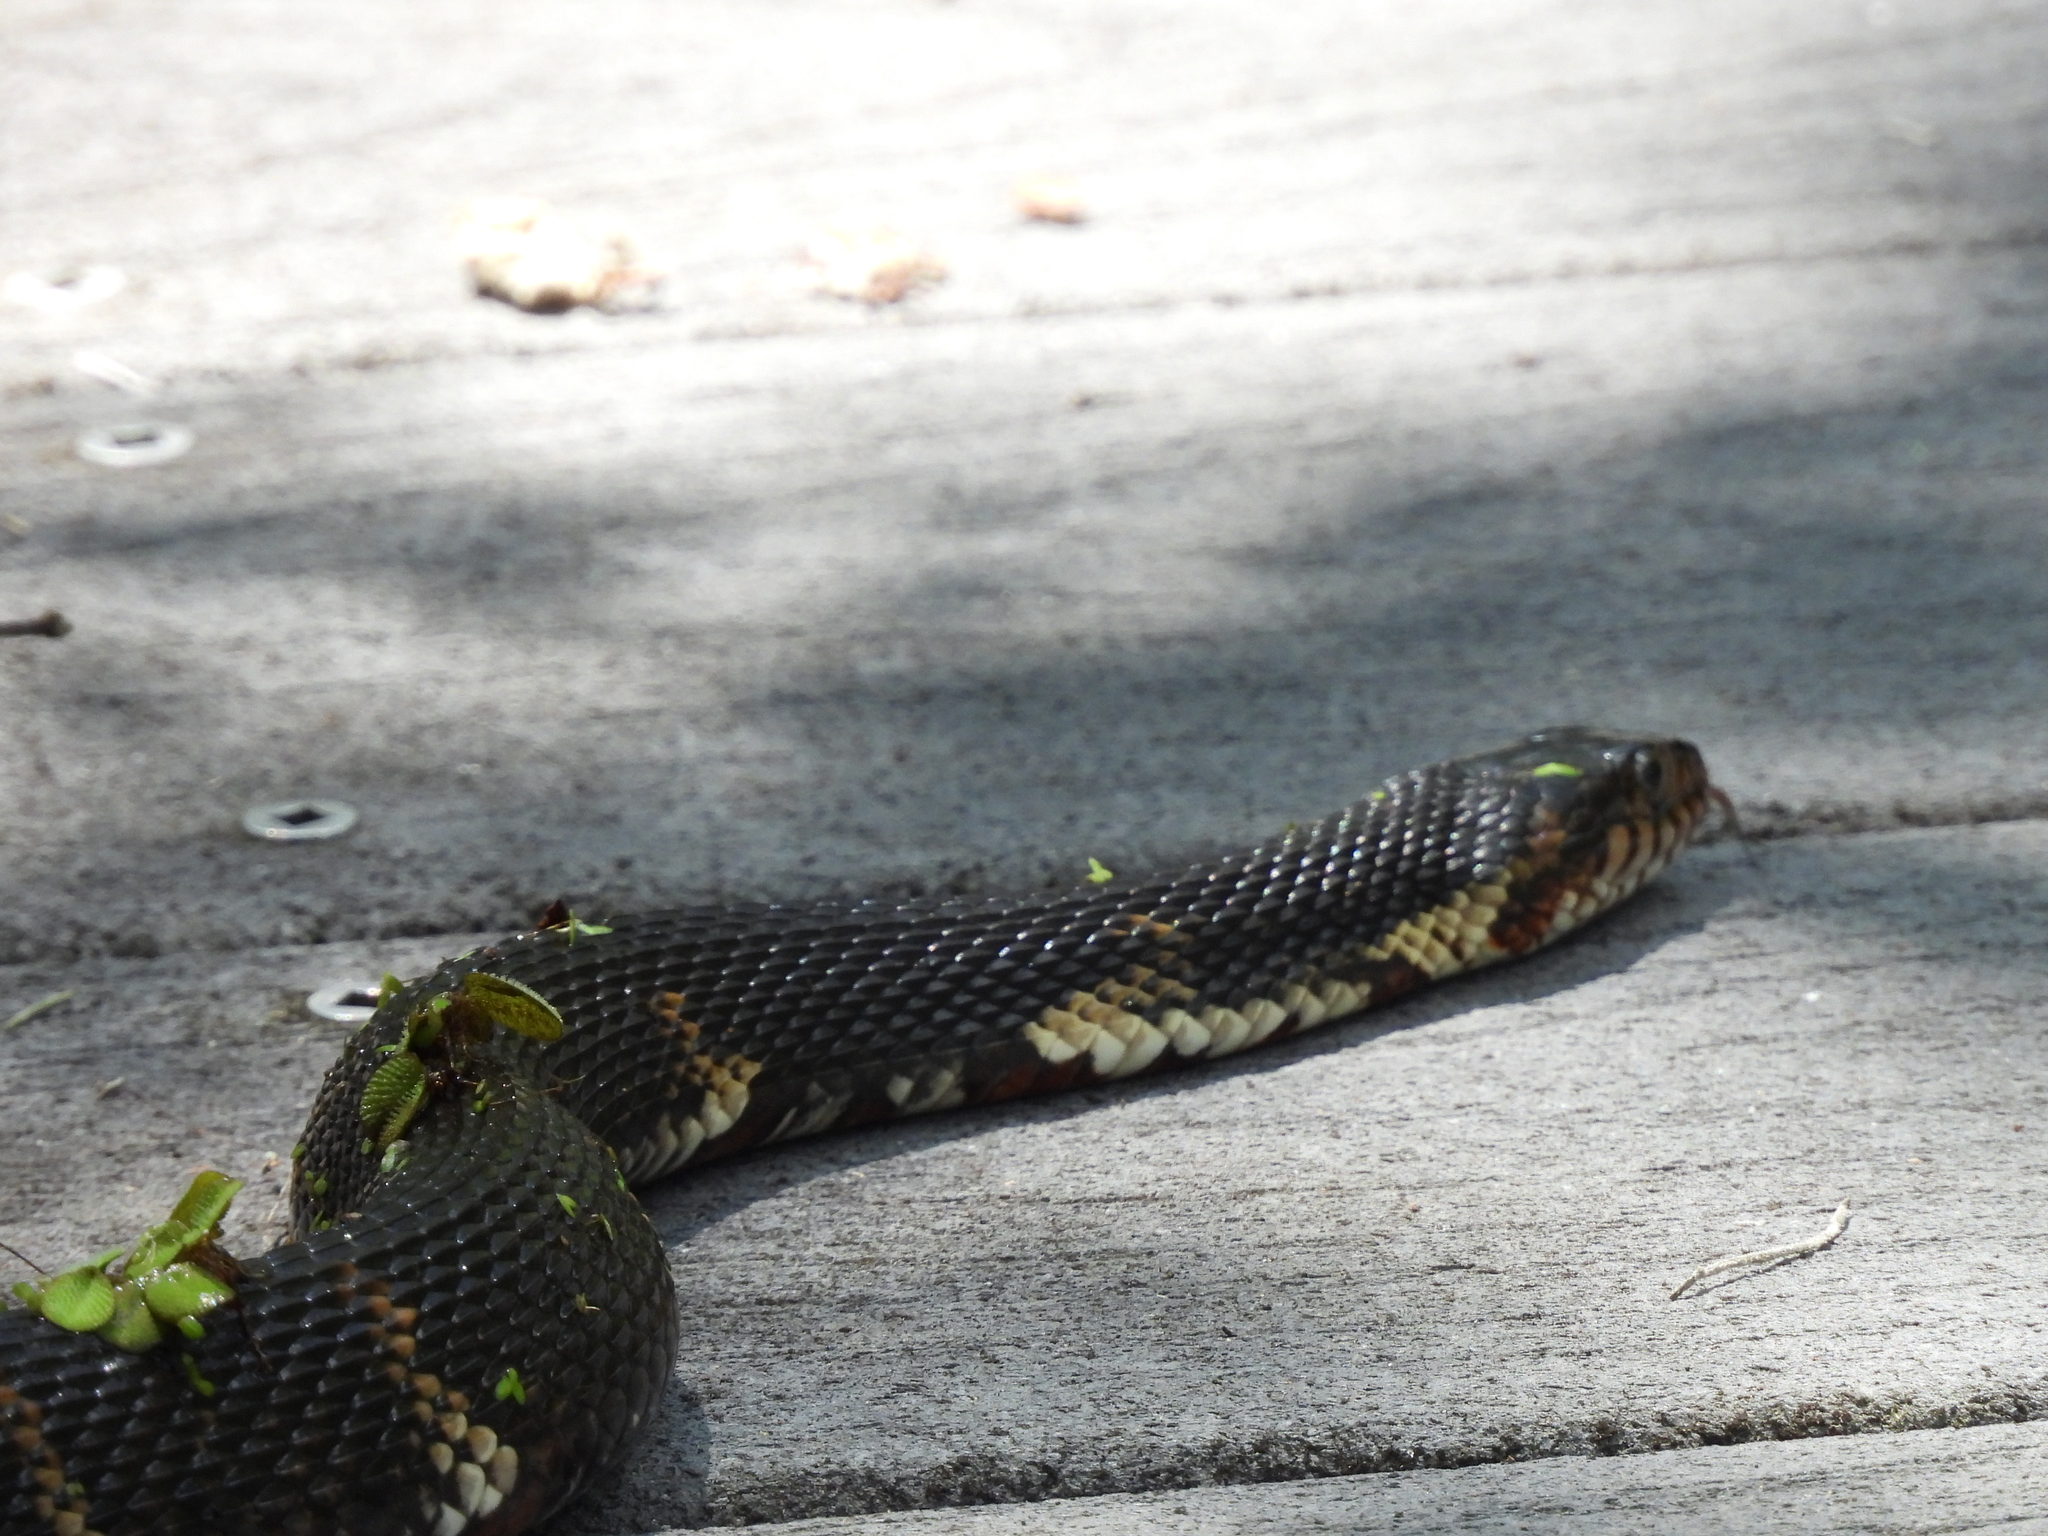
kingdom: Animalia
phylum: Chordata
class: Squamata
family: Colubridae
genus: Nerodia
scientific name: Nerodia fasciata
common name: Southern water snake
